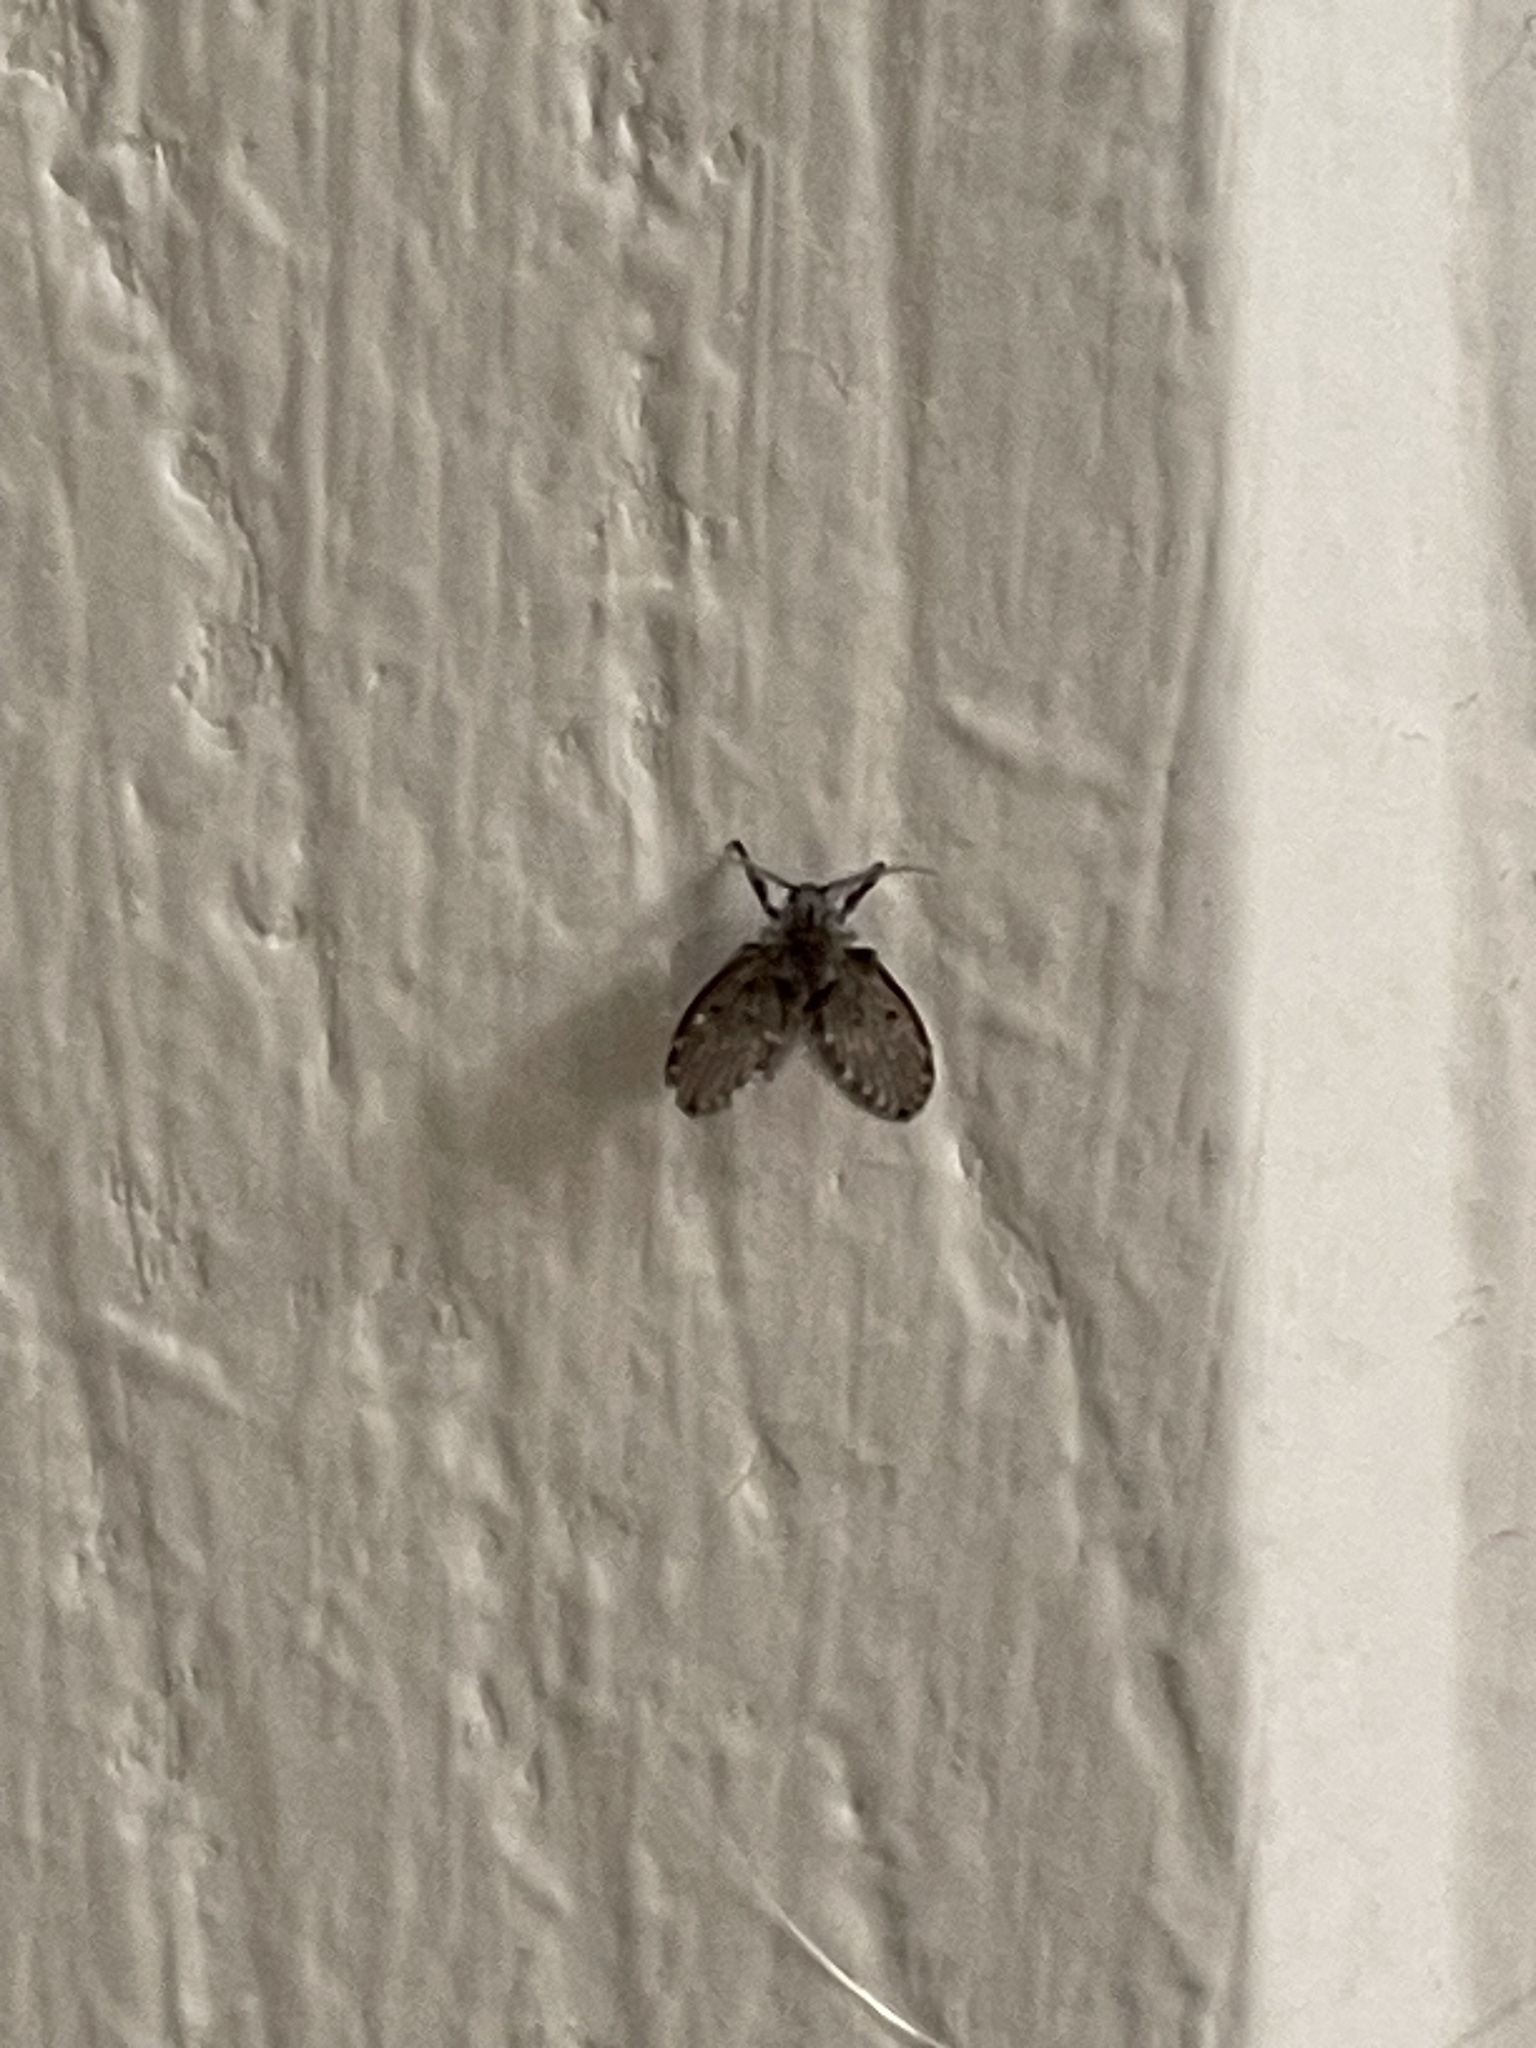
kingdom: Animalia
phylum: Arthropoda
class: Insecta
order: Diptera
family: Psychodidae
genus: Clogmia
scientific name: Clogmia albipunctatus
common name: White-spotted moth fly
